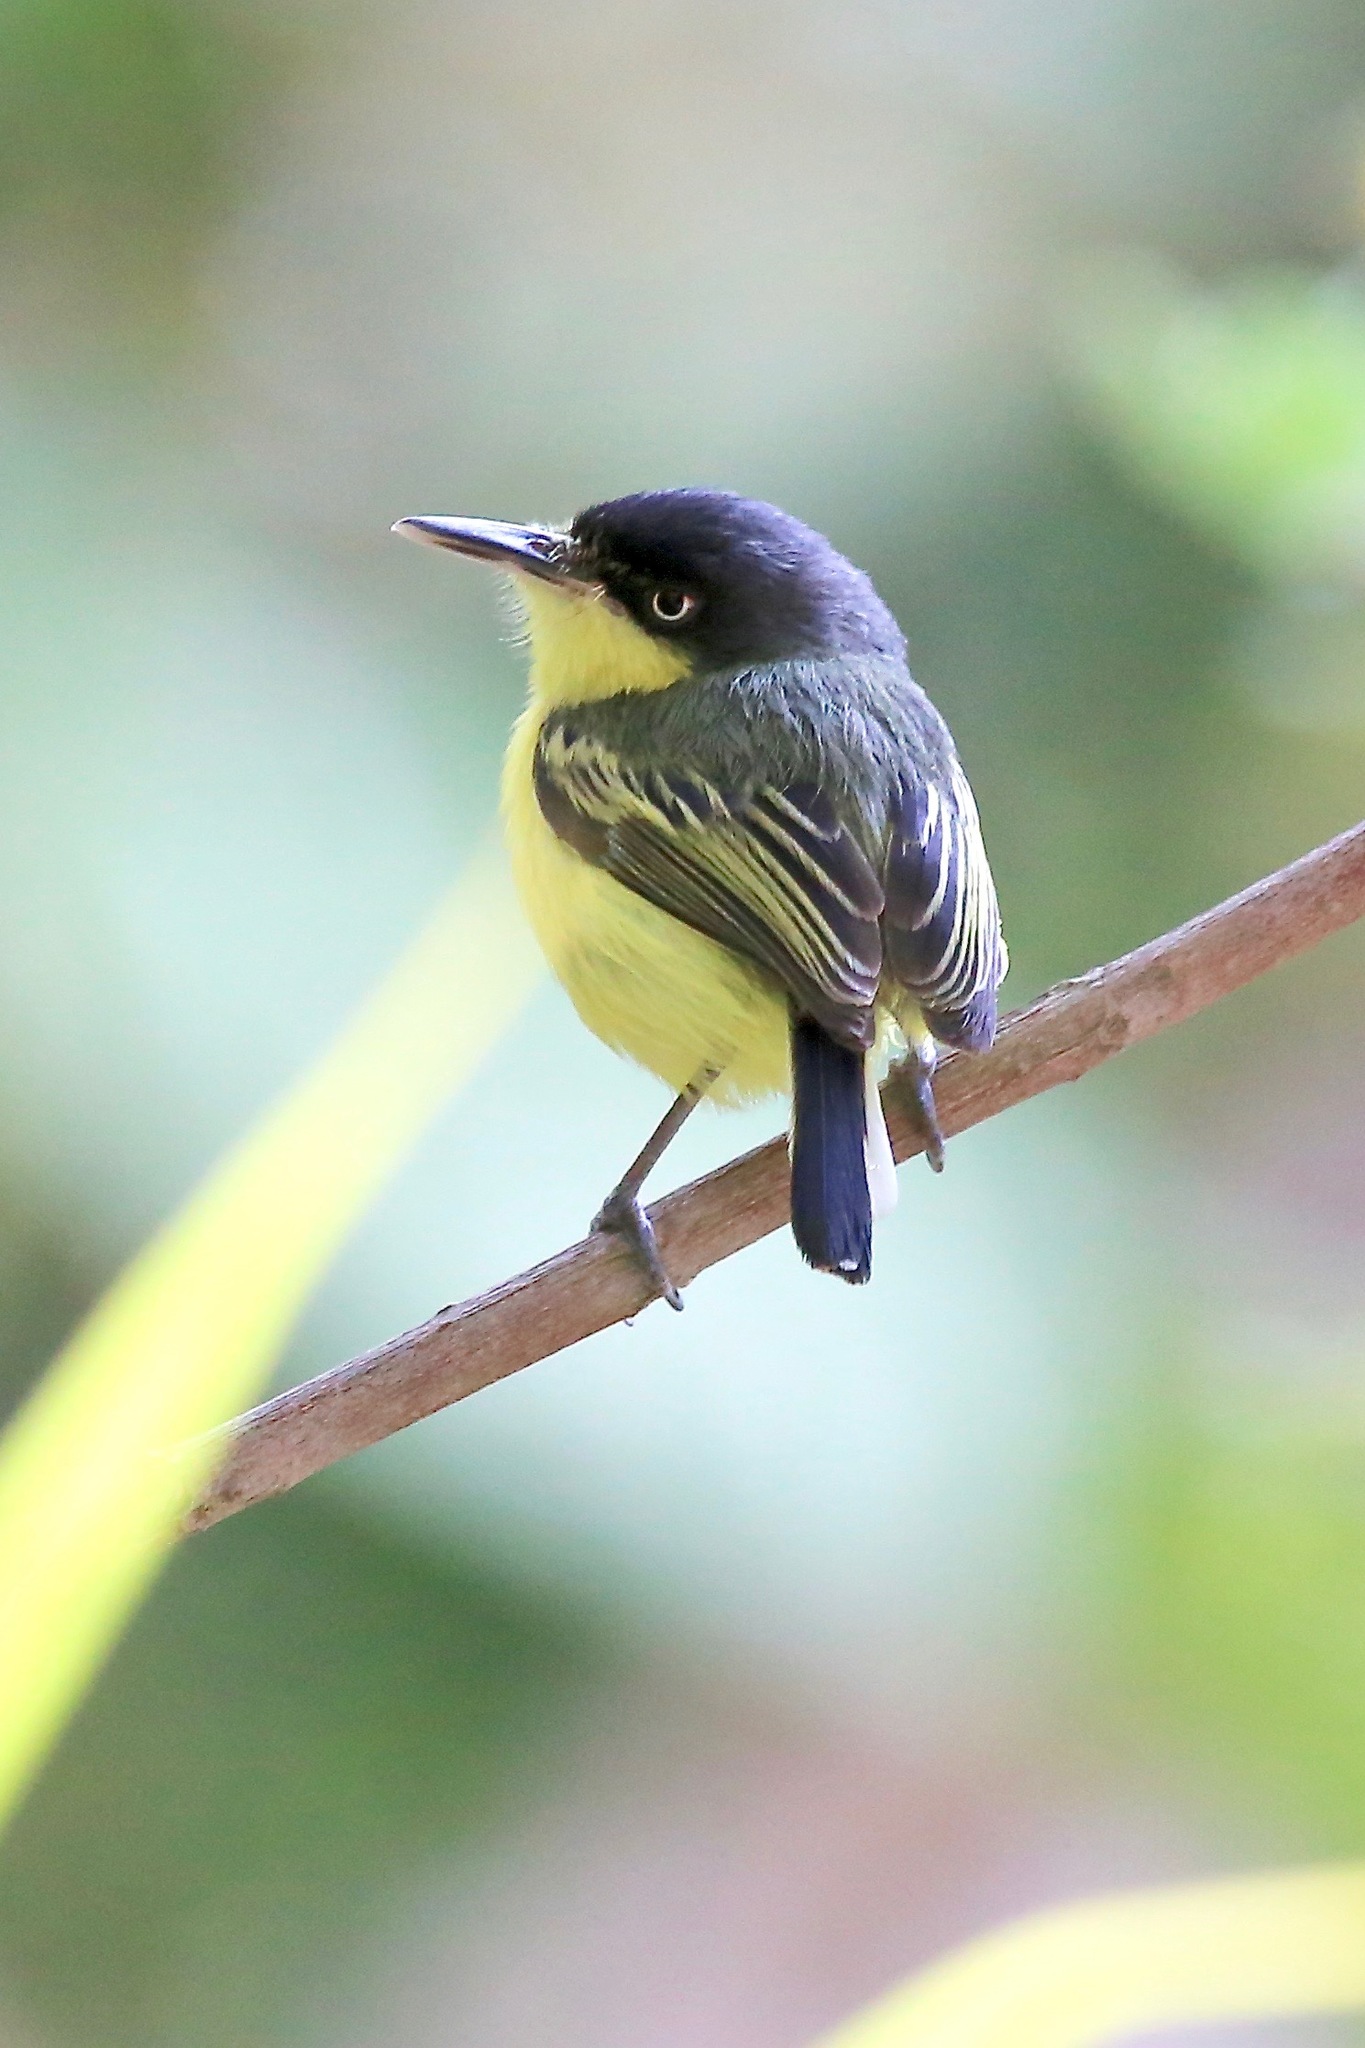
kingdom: Animalia
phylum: Chordata
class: Aves
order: Passeriformes
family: Tyrannidae
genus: Todirostrum
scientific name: Todirostrum cinereum
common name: Common tody-flycatcher
